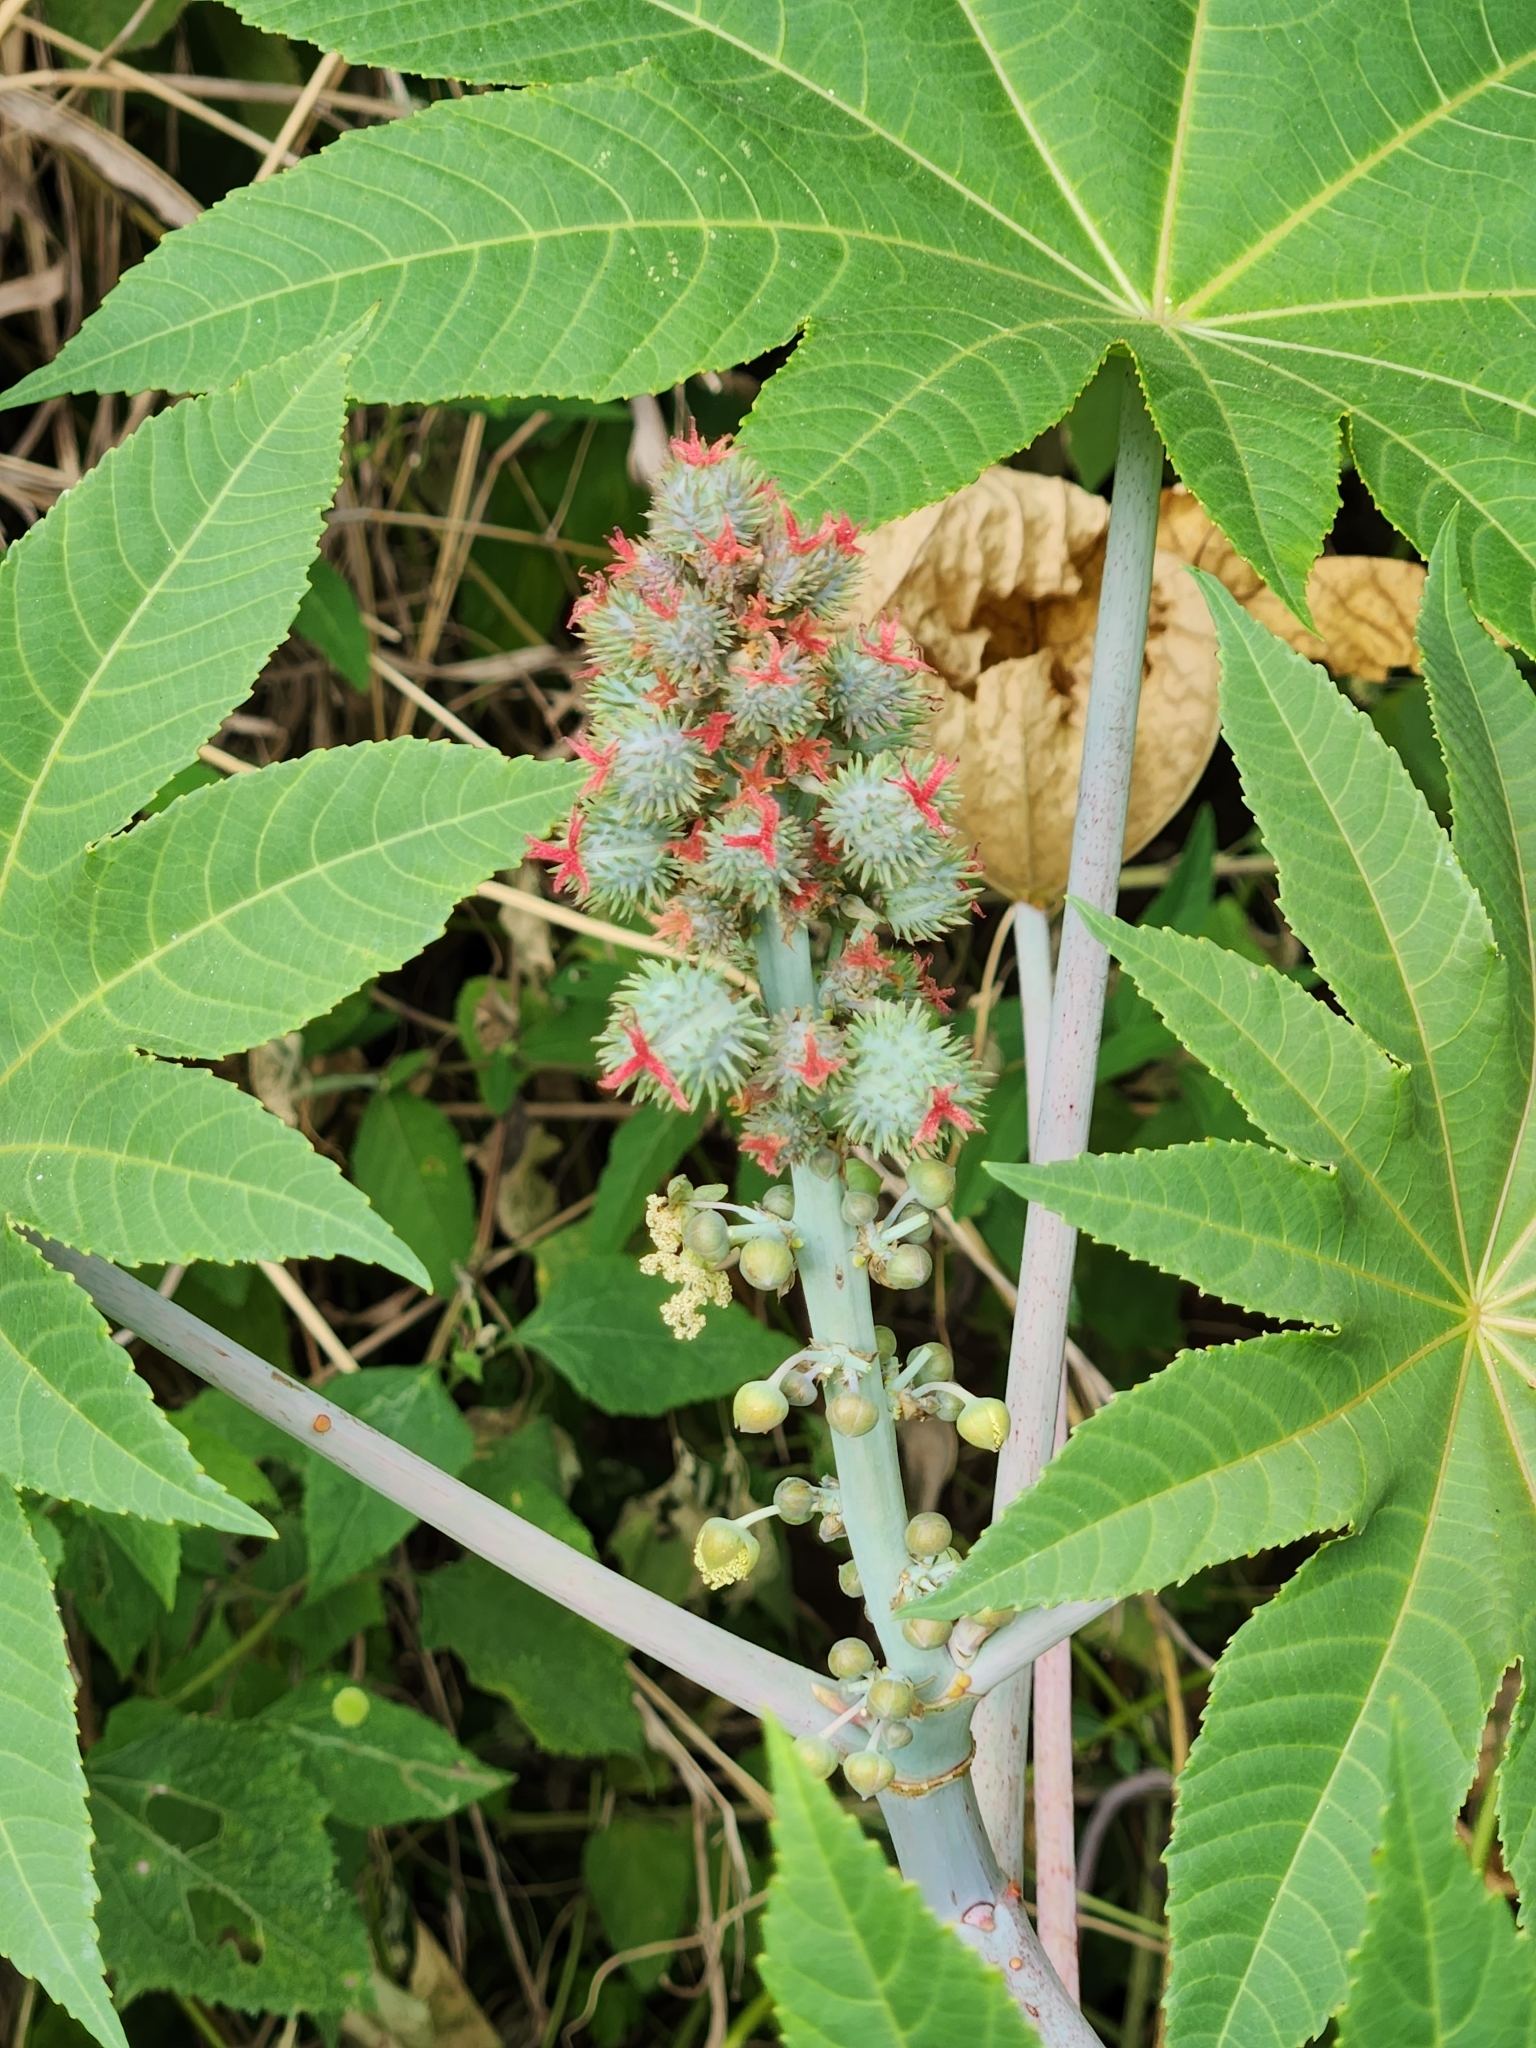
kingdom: Plantae
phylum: Tracheophyta
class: Magnoliopsida
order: Malpighiales
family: Euphorbiaceae
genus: Ricinus
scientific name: Ricinus communis
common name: Castor-oil-plant
